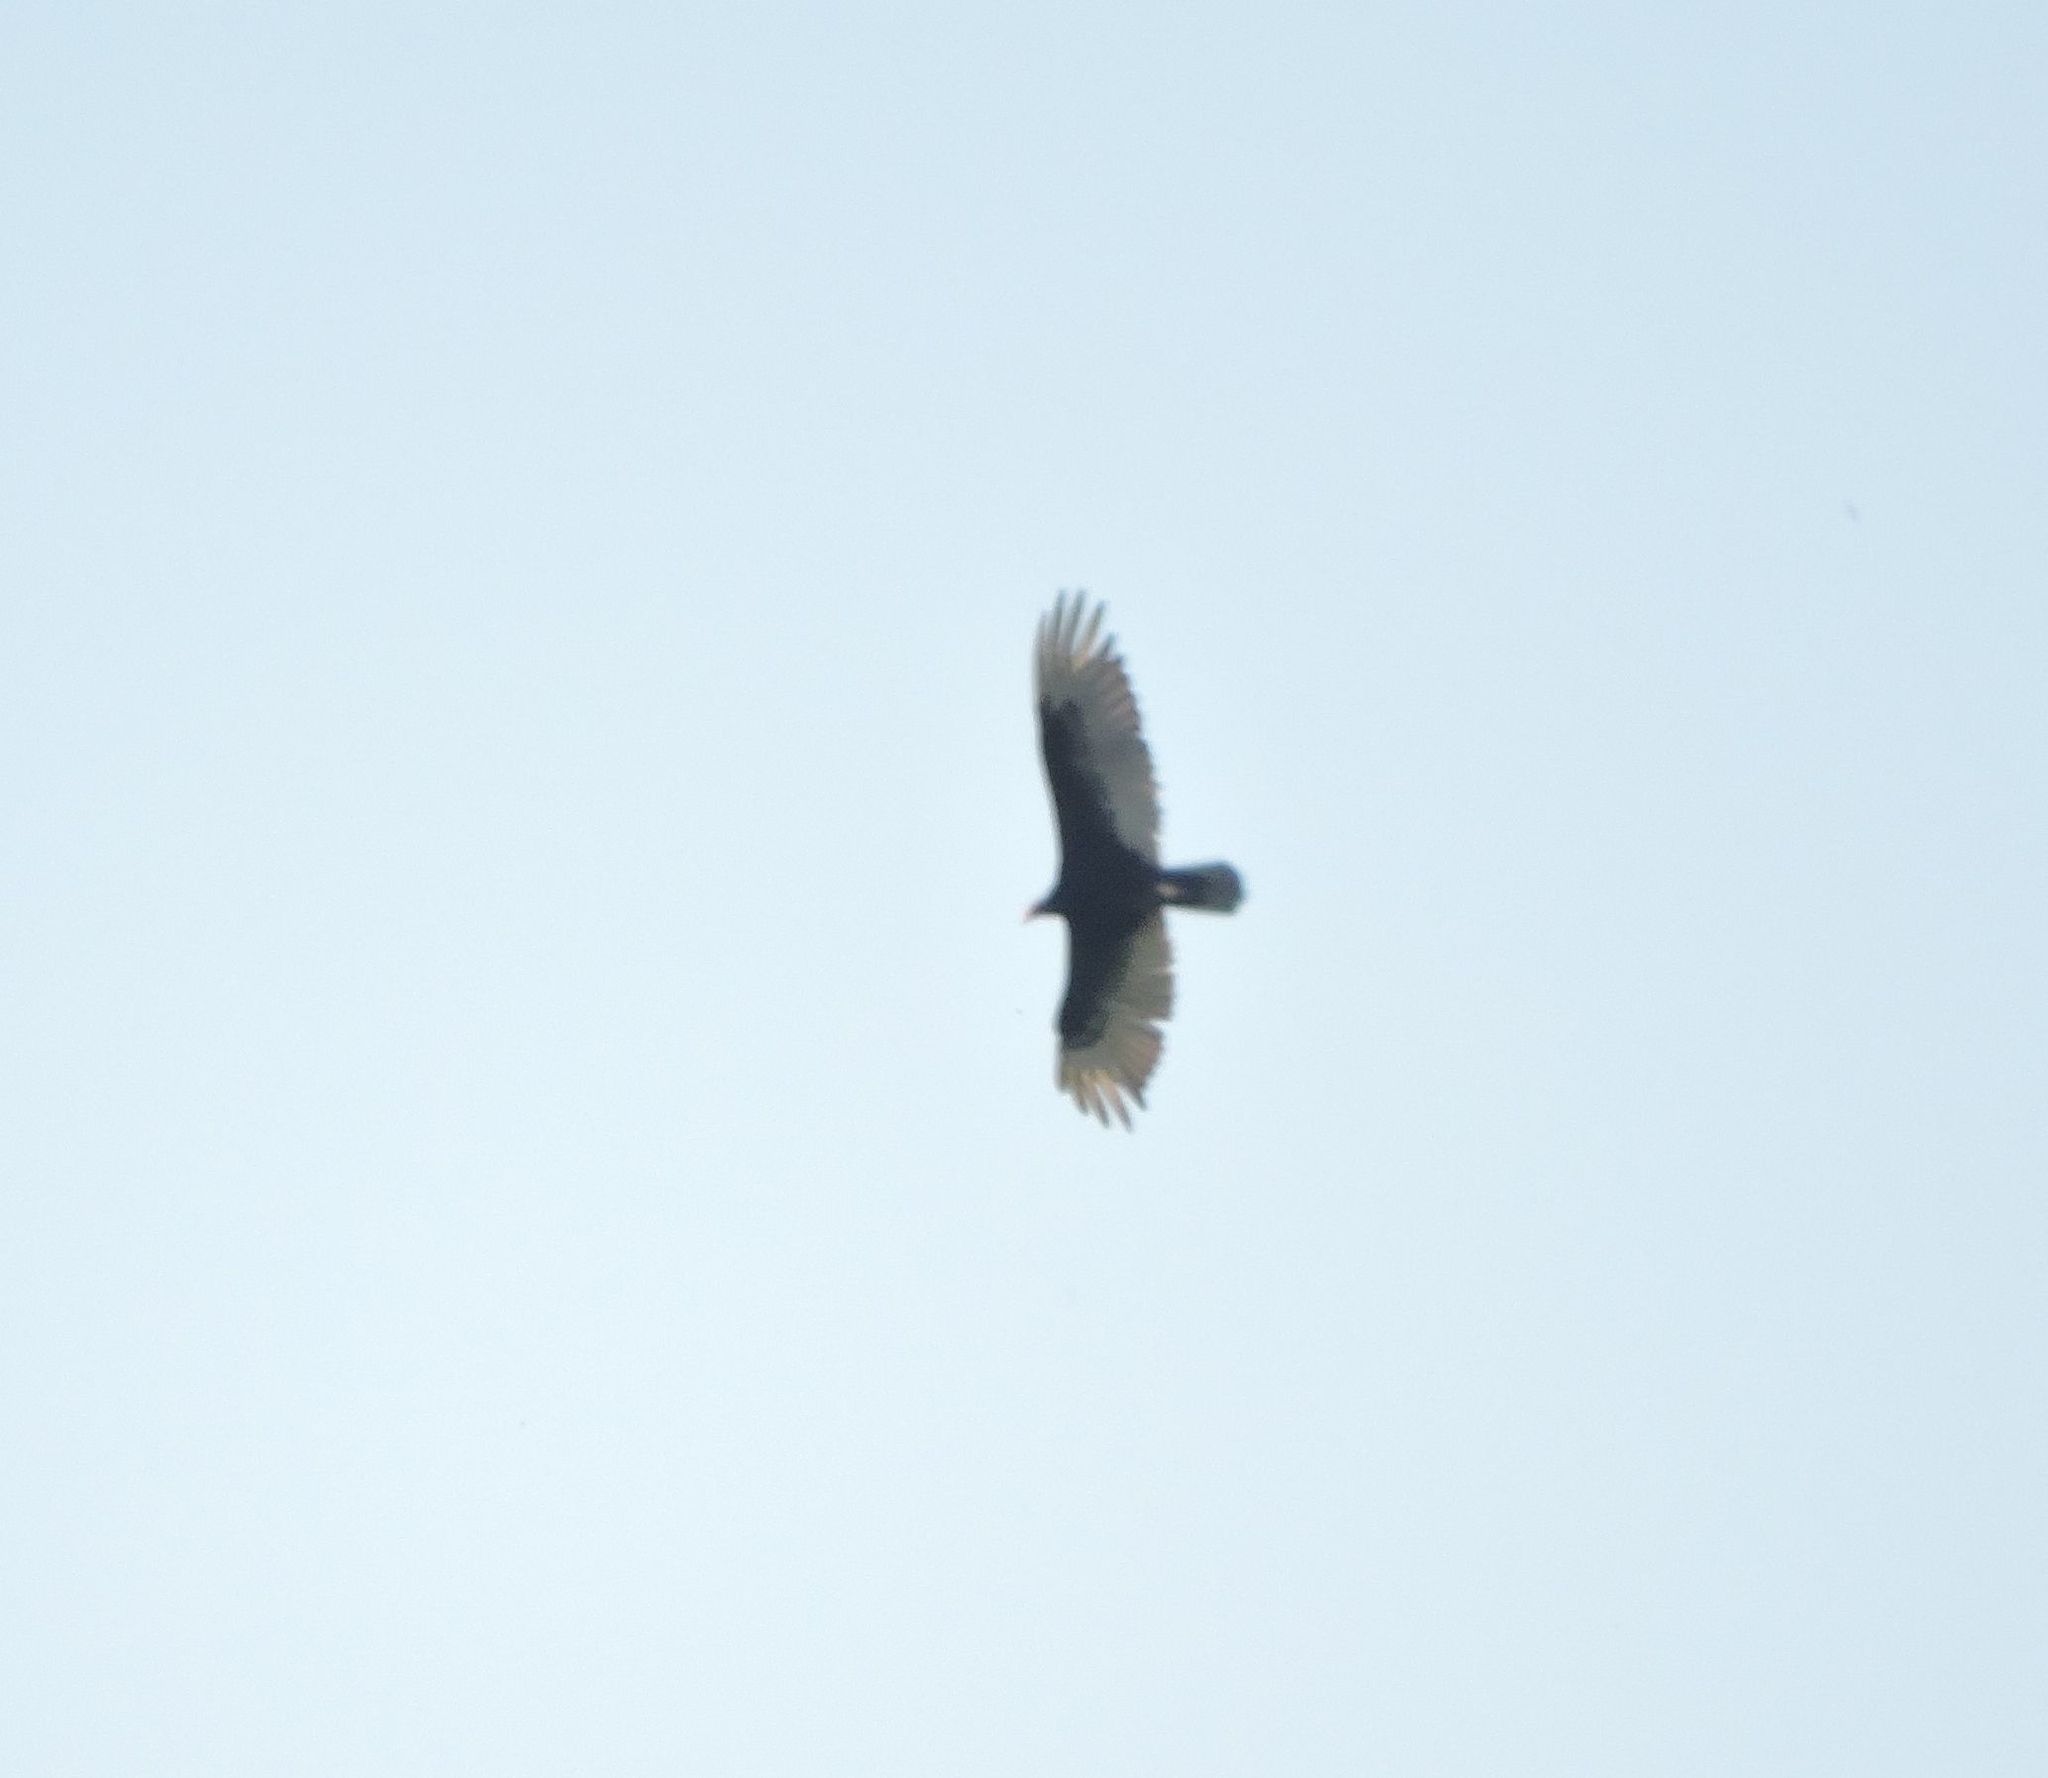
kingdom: Animalia
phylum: Chordata
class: Aves
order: Accipitriformes
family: Cathartidae
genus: Cathartes
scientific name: Cathartes aura
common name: Turkey vulture
